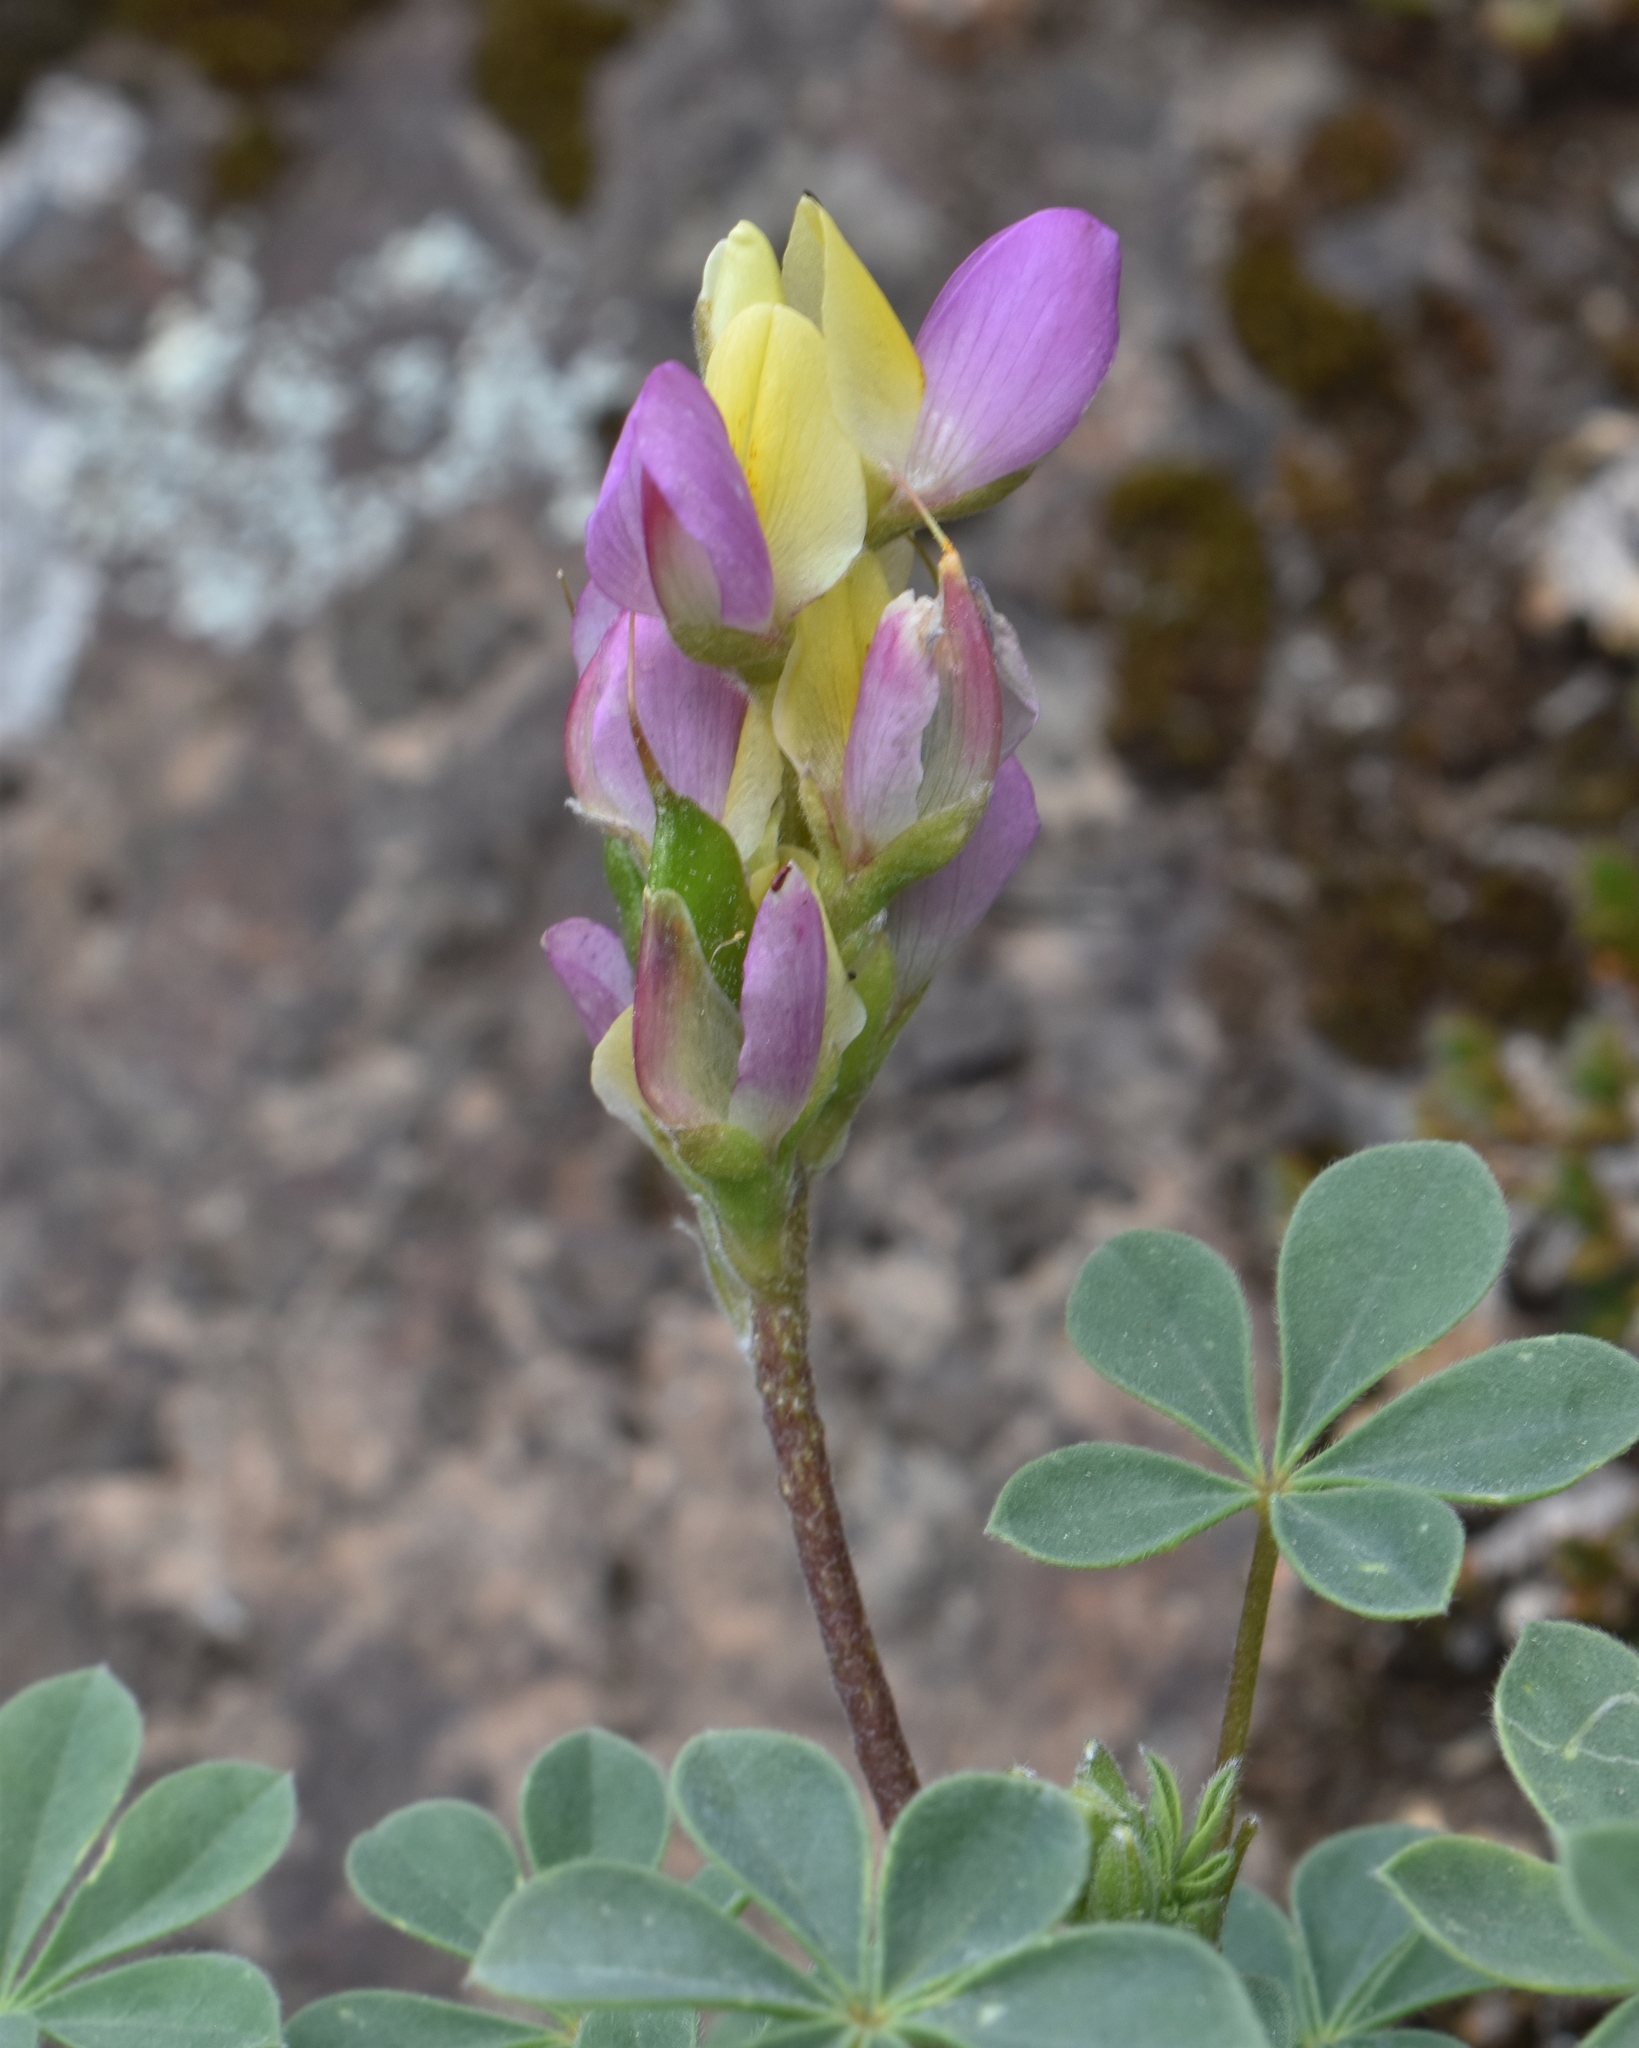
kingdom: Plantae
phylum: Tracheophyta
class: Magnoliopsida
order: Fabales
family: Fabaceae
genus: Lupinus
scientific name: Lupinus stiversii
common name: Harlequin lupine
